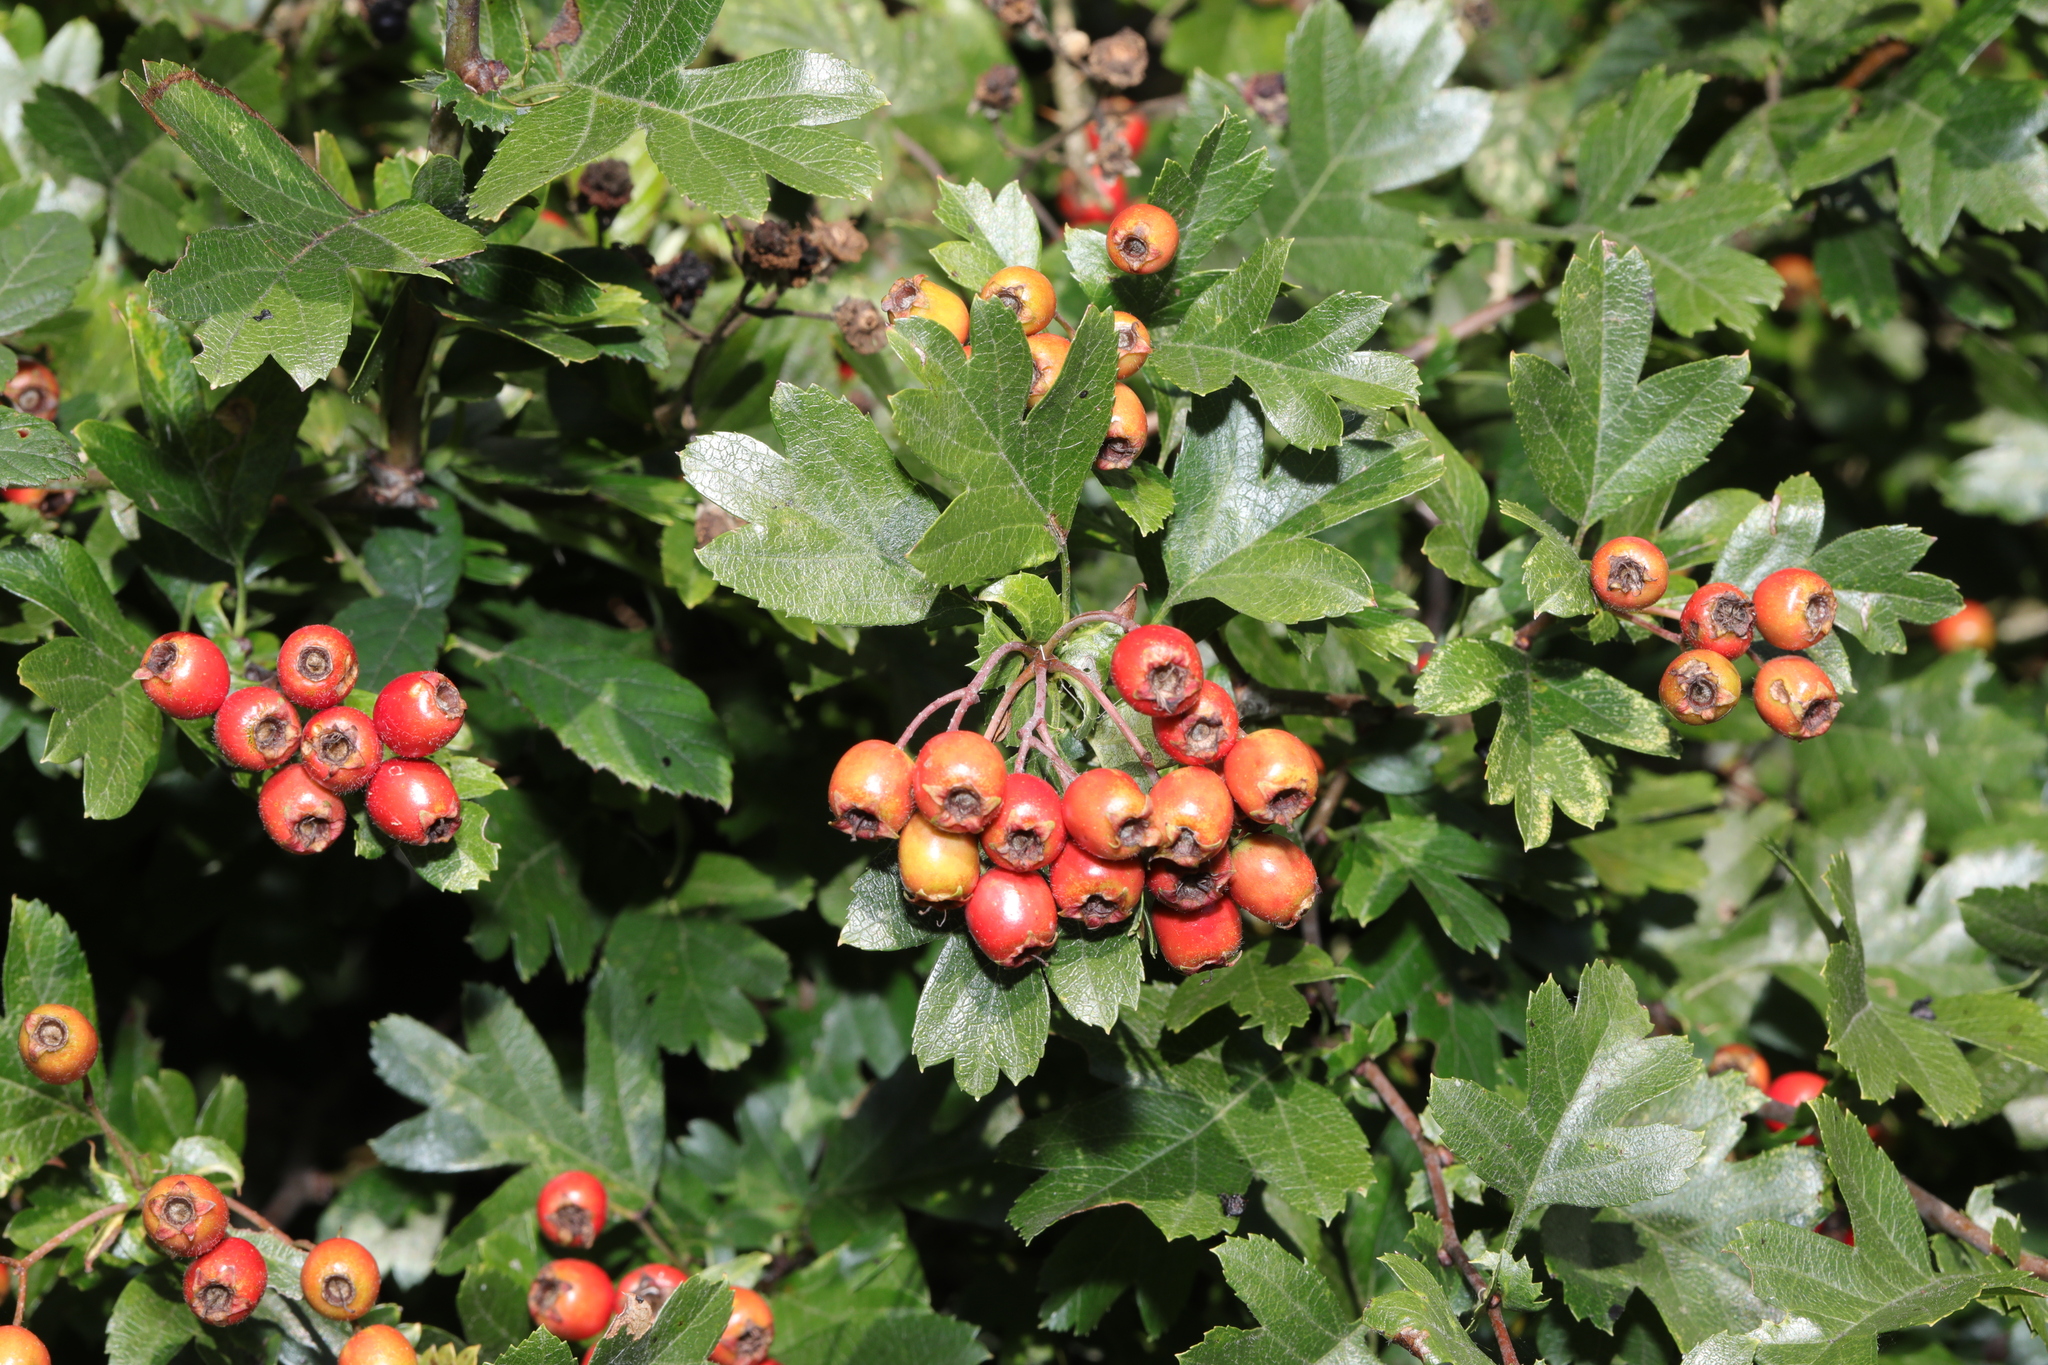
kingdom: Plantae
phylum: Tracheophyta
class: Magnoliopsida
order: Rosales
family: Rosaceae
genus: Crataegus
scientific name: Crataegus monogyna
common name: Hawthorn
